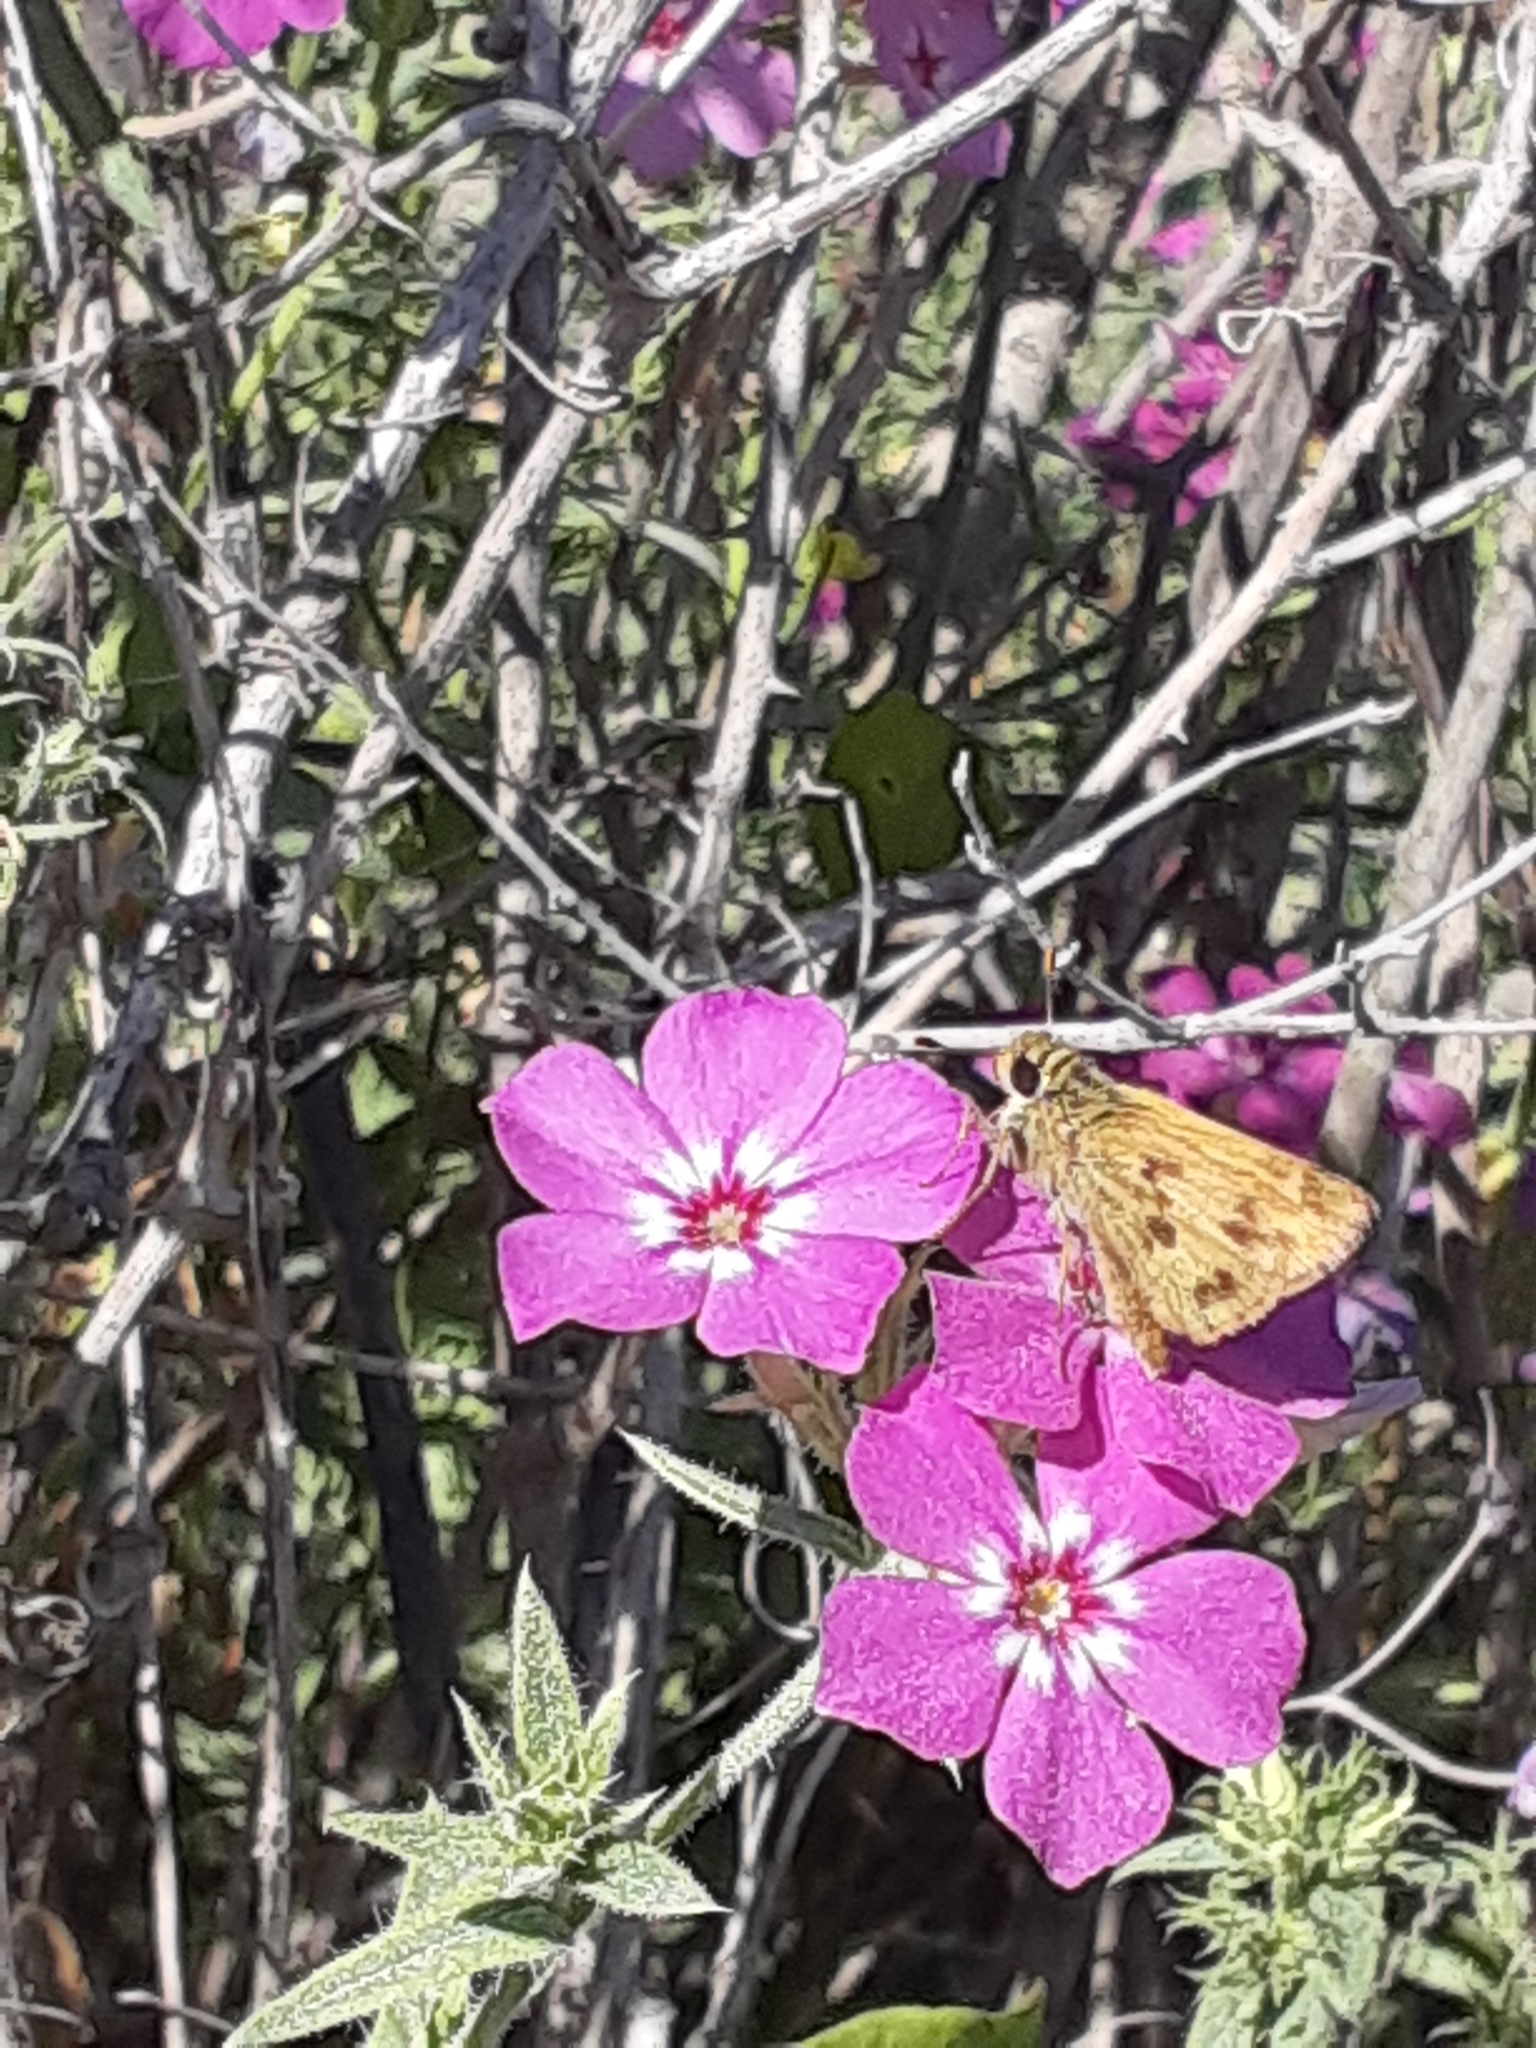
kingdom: Animalia
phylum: Arthropoda
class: Insecta
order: Lepidoptera
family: Hesperiidae
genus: Polites
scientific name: Polites vibex
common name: Whirlabout
